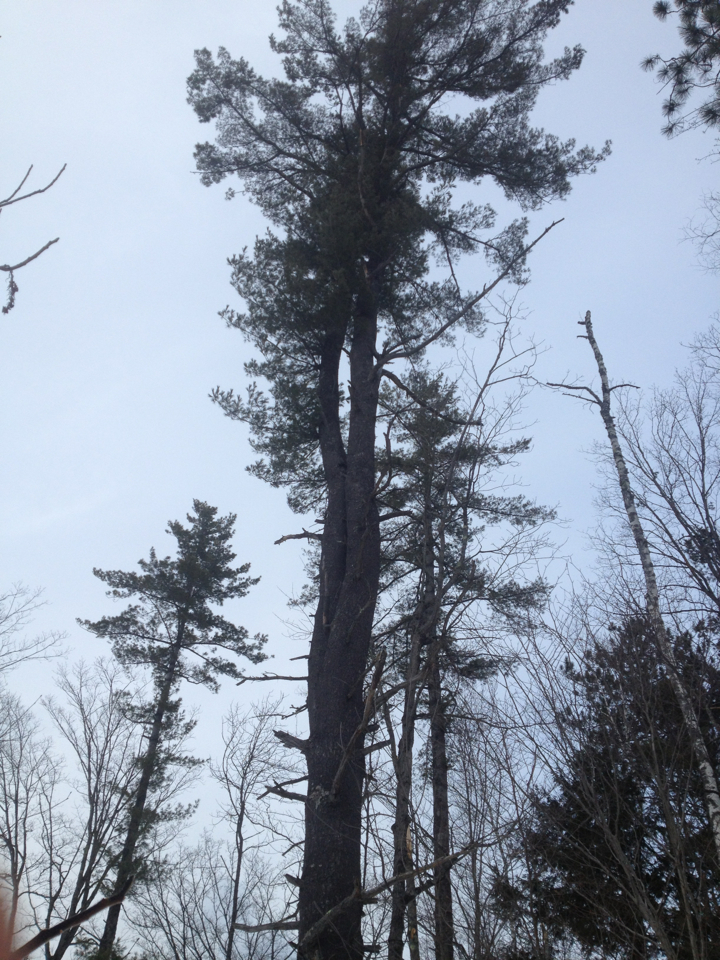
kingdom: Plantae
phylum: Tracheophyta
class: Pinopsida
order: Pinales
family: Pinaceae
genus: Pinus
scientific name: Pinus strobus
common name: Weymouth pine
